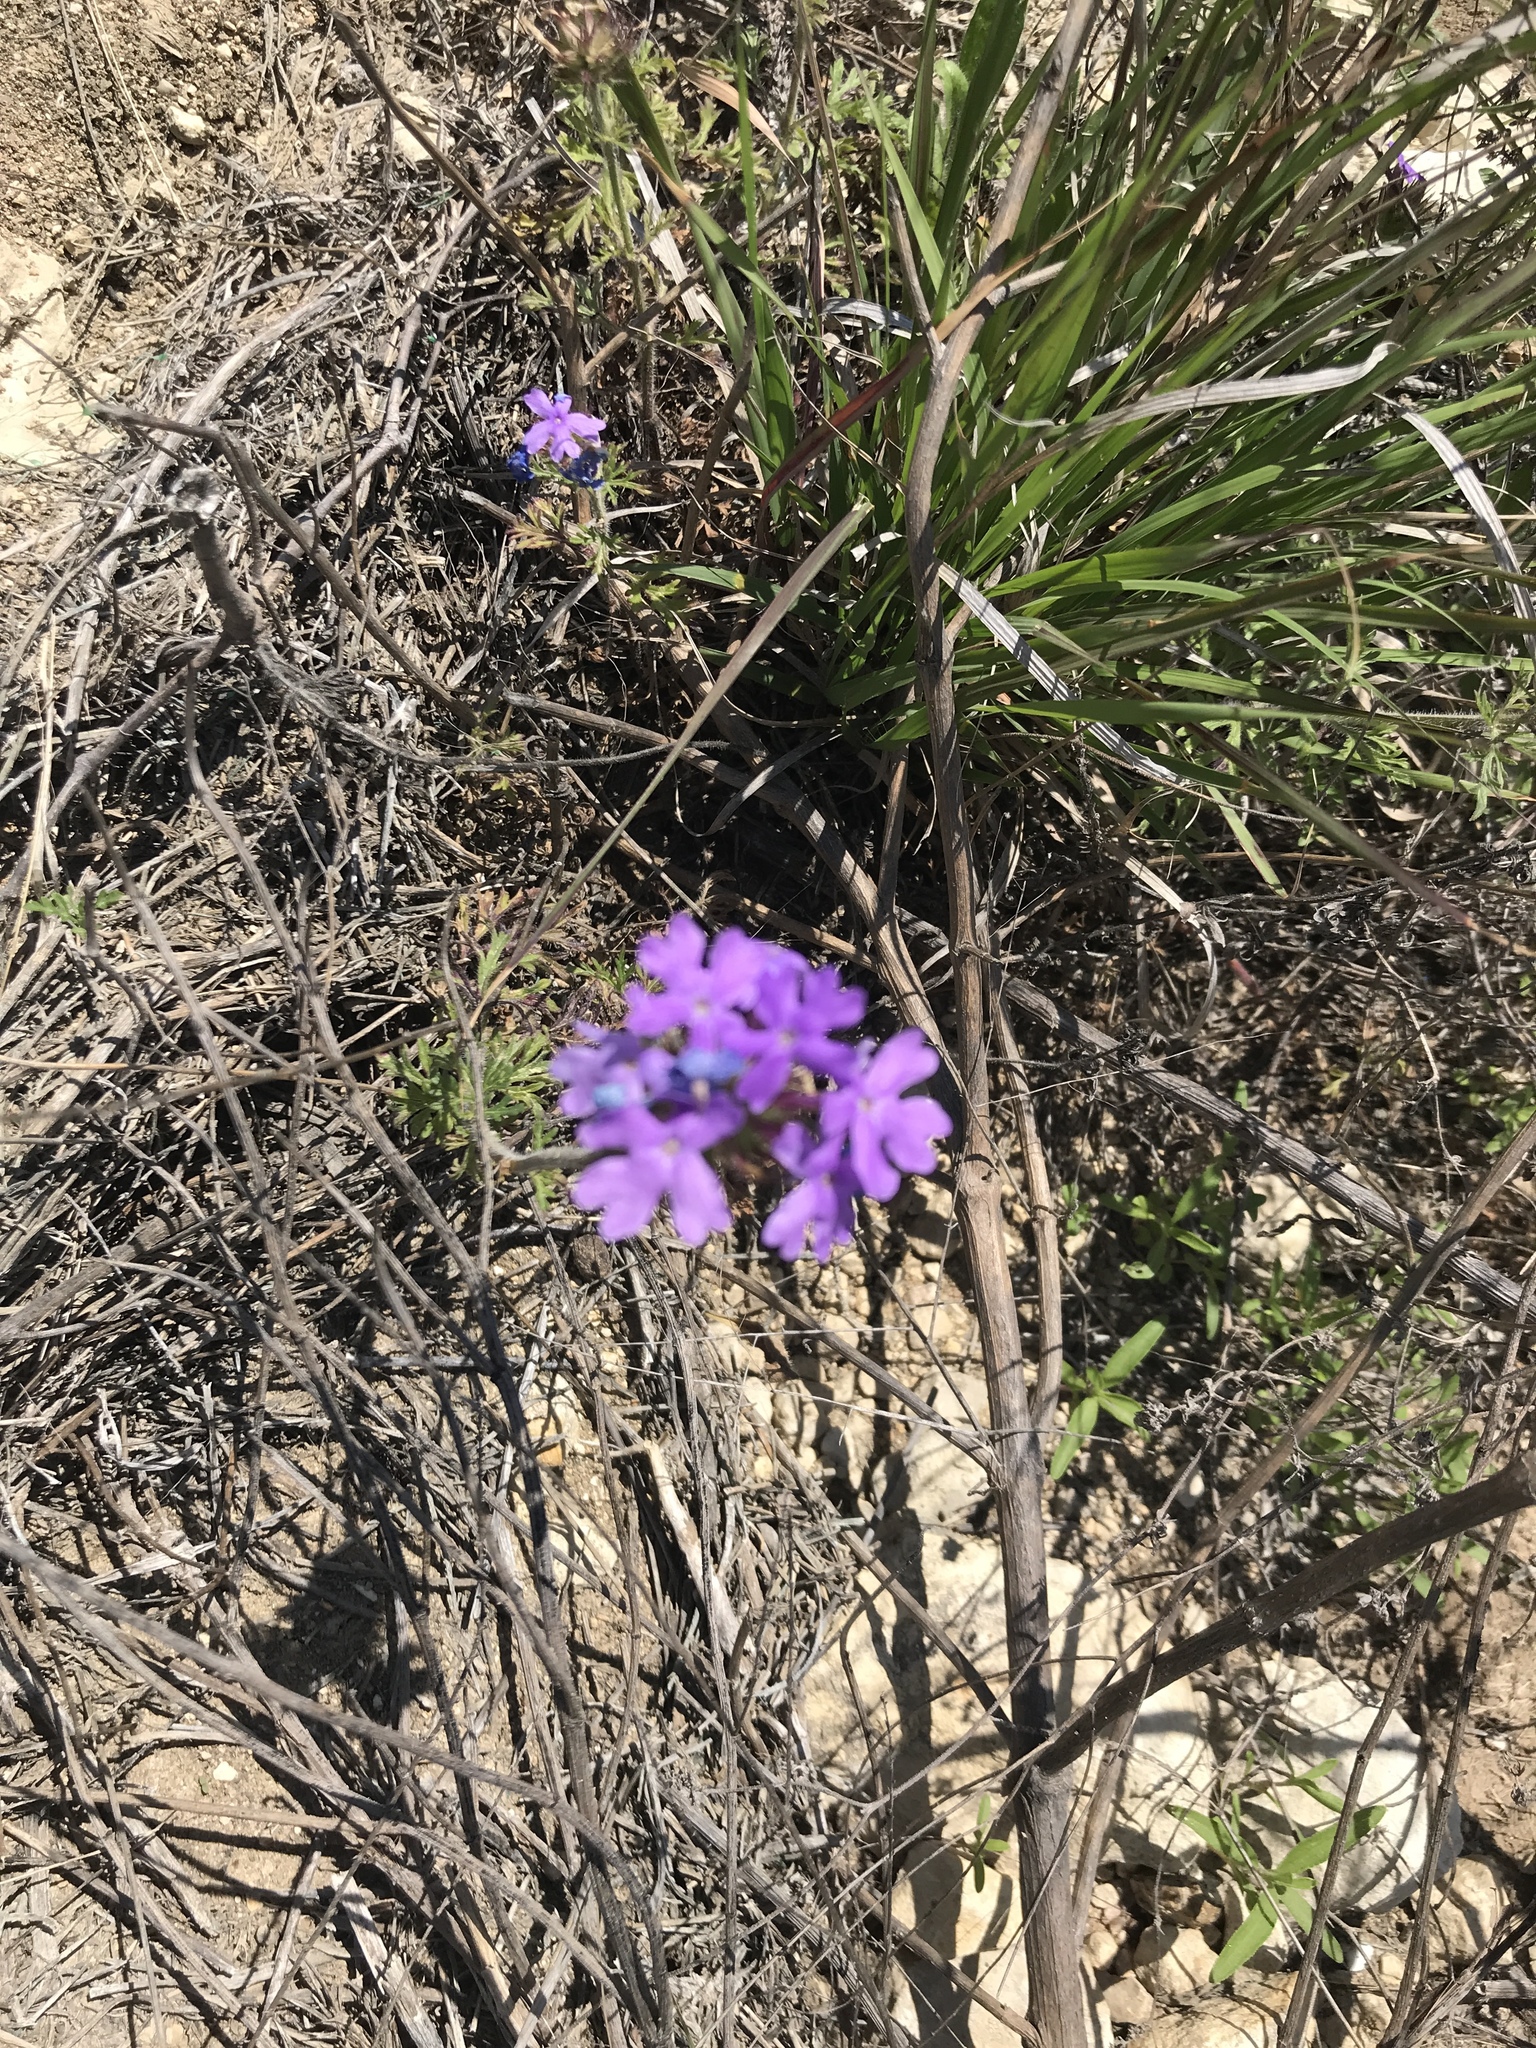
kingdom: Plantae
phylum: Tracheophyta
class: Magnoliopsida
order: Lamiales
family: Verbenaceae
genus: Verbena
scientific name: Verbena bipinnatifida
